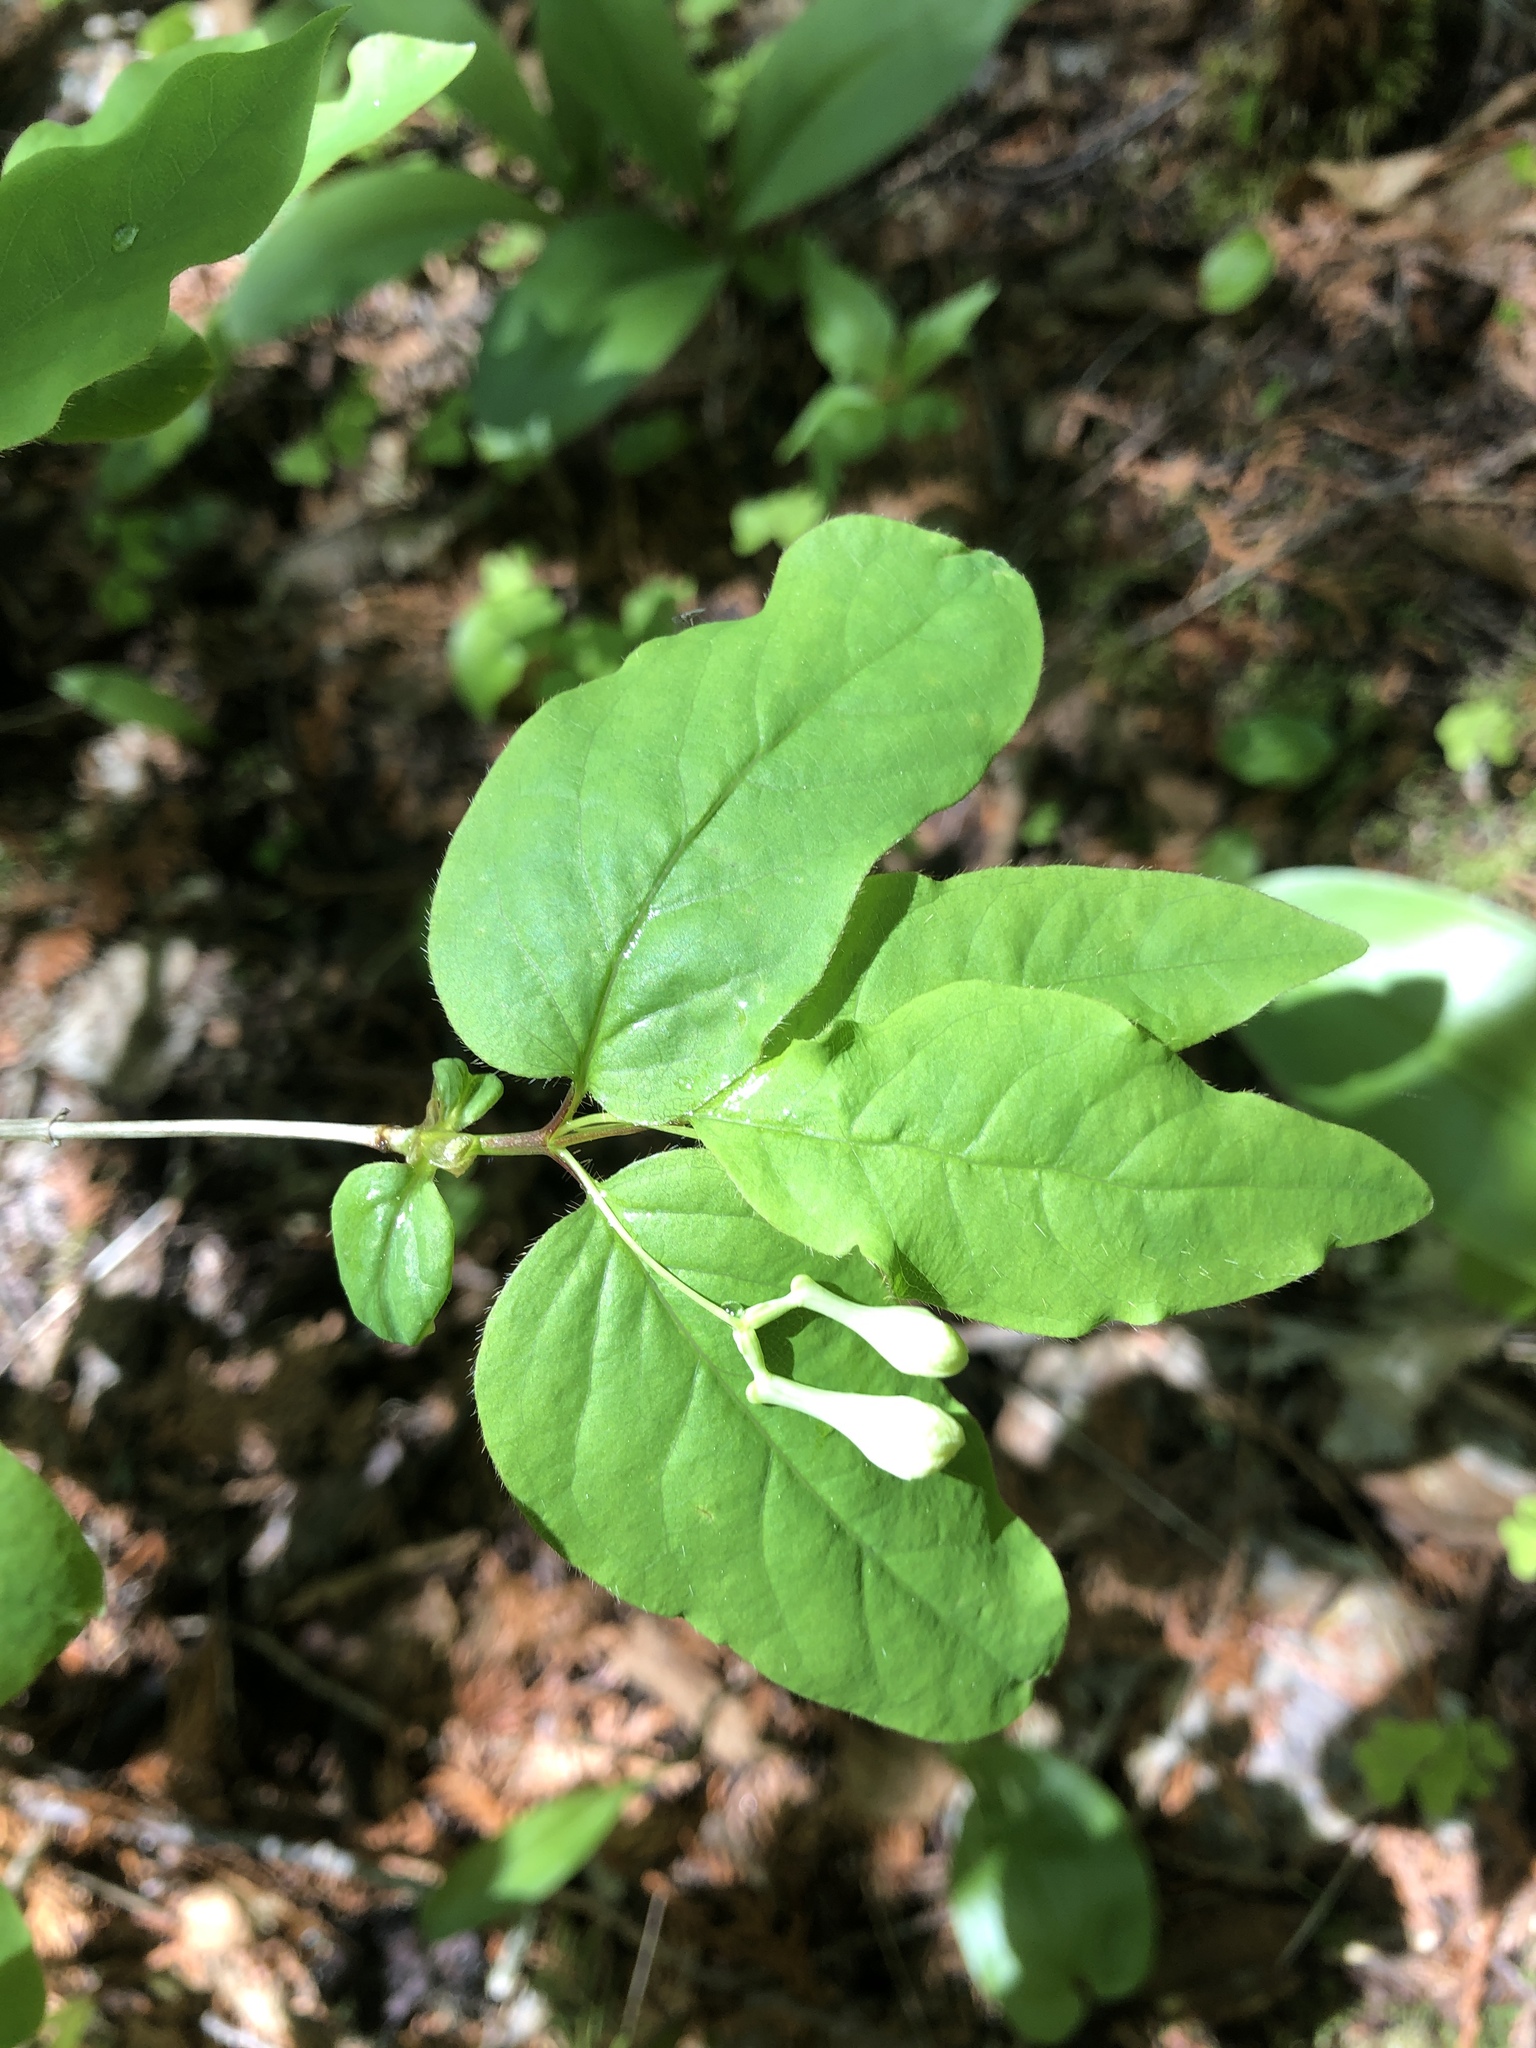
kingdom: Plantae
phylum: Tracheophyta
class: Magnoliopsida
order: Dipsacales
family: Caprifoliaceae
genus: Lonicera
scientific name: Lonicera canadensis
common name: American fly-honeysuckle
